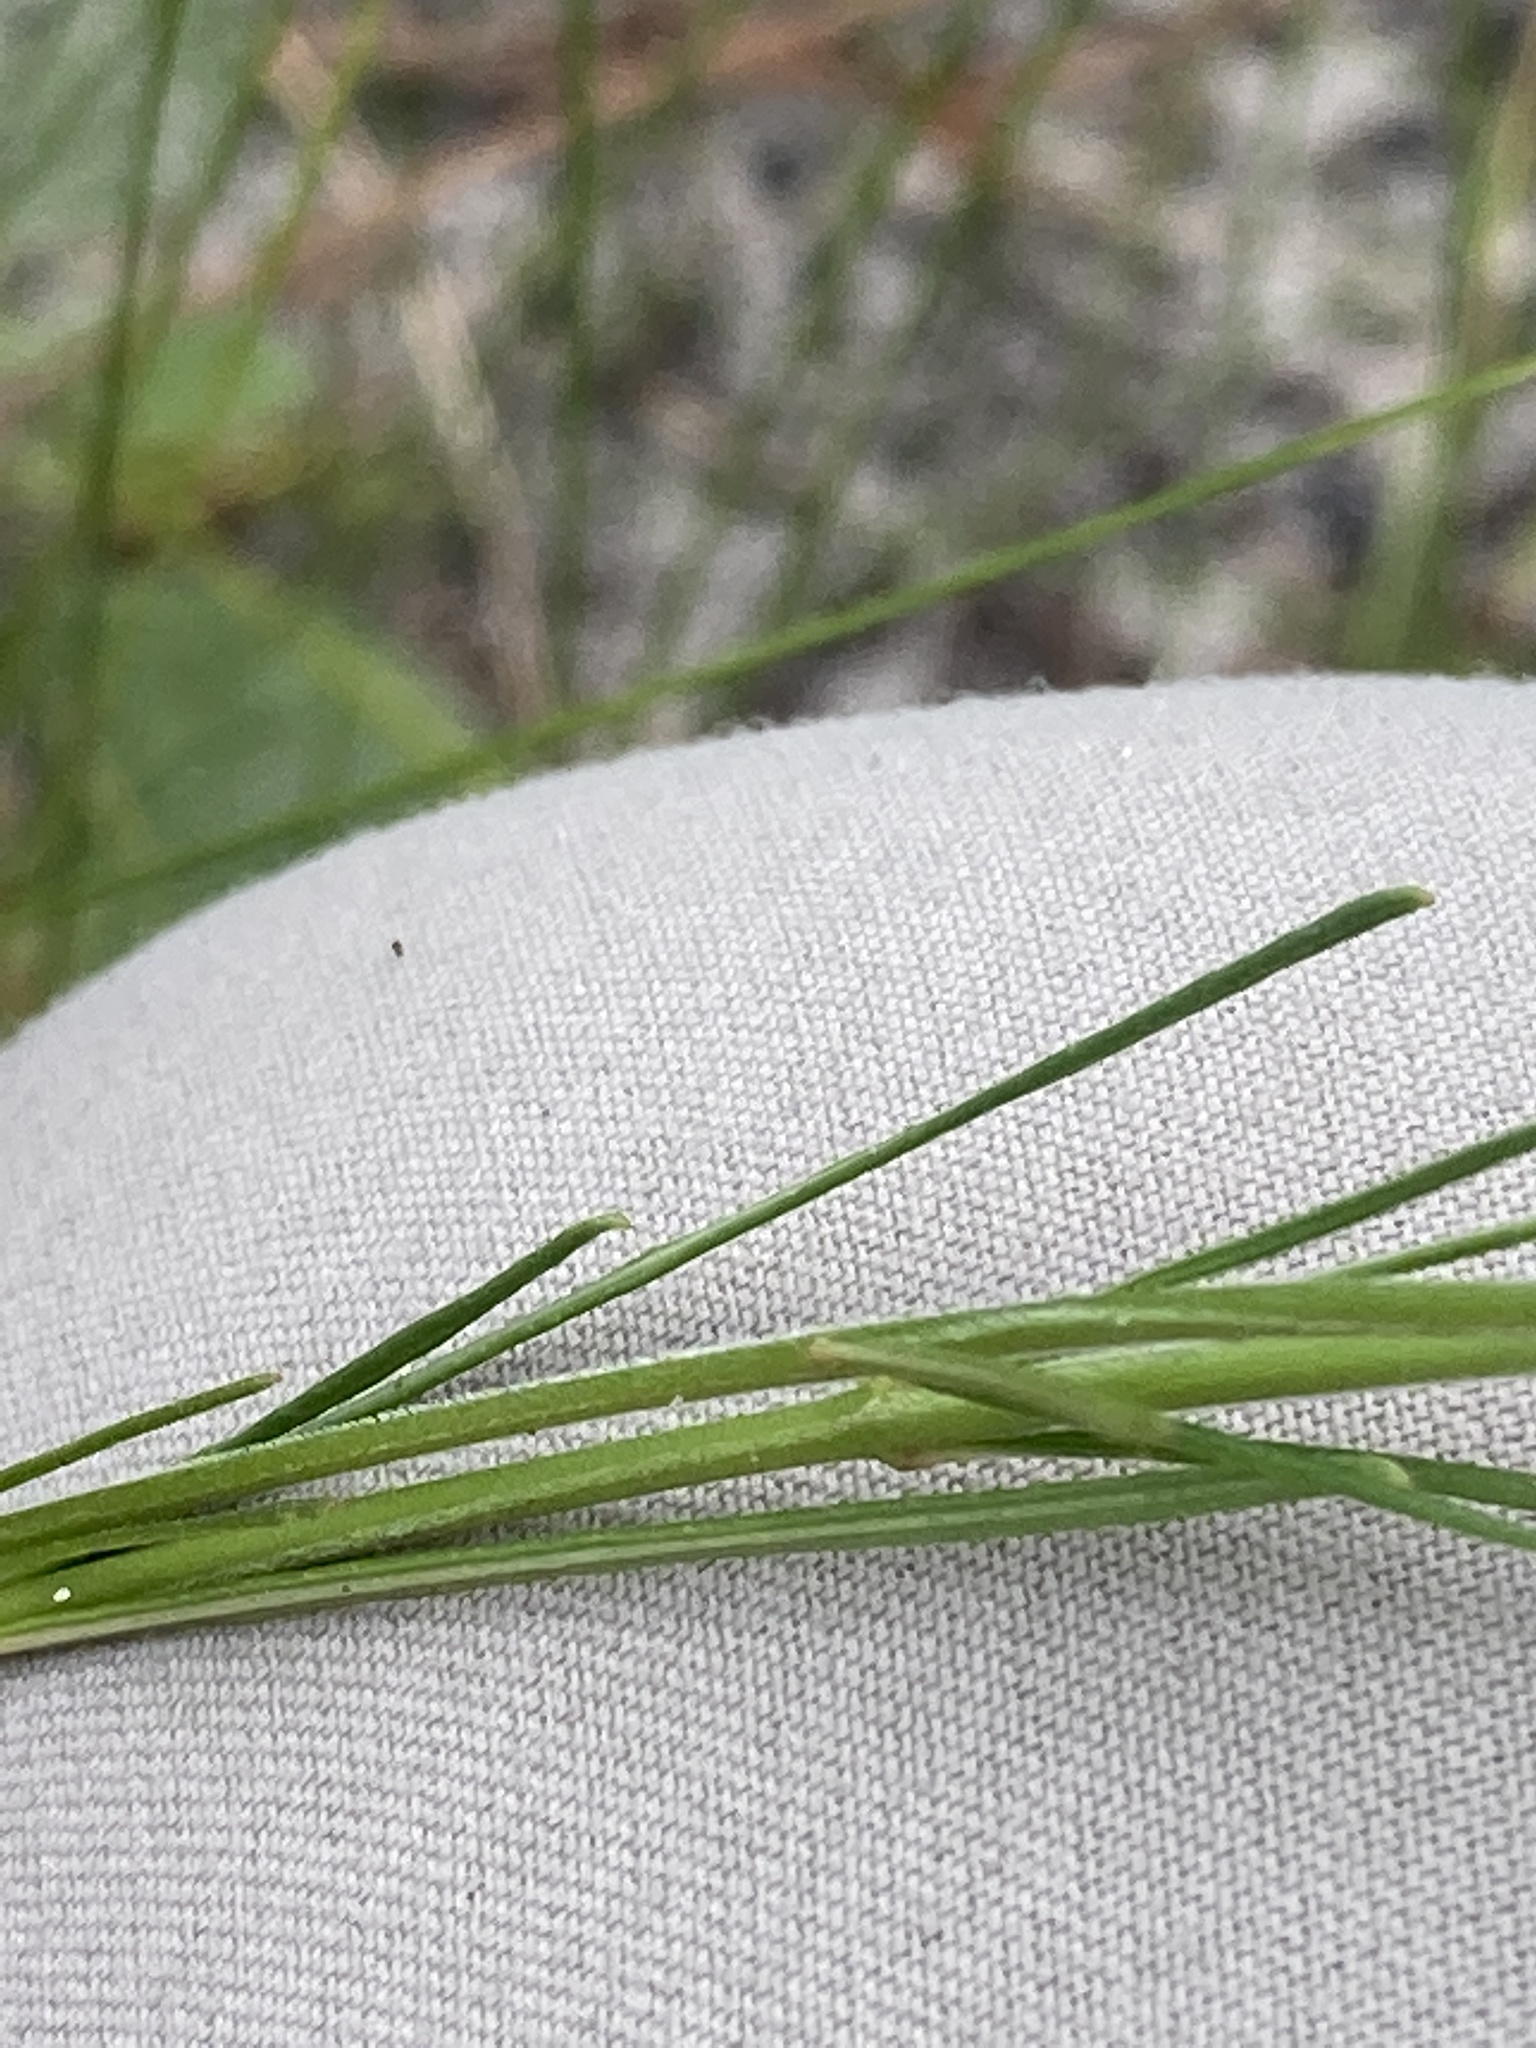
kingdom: Plantae
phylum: Tracheophyta
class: Magnoliopsida
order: Gentianales
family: Apocynaceae
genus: Asclepias
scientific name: Asclepias verticillata
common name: Eastern whorled milkweed
